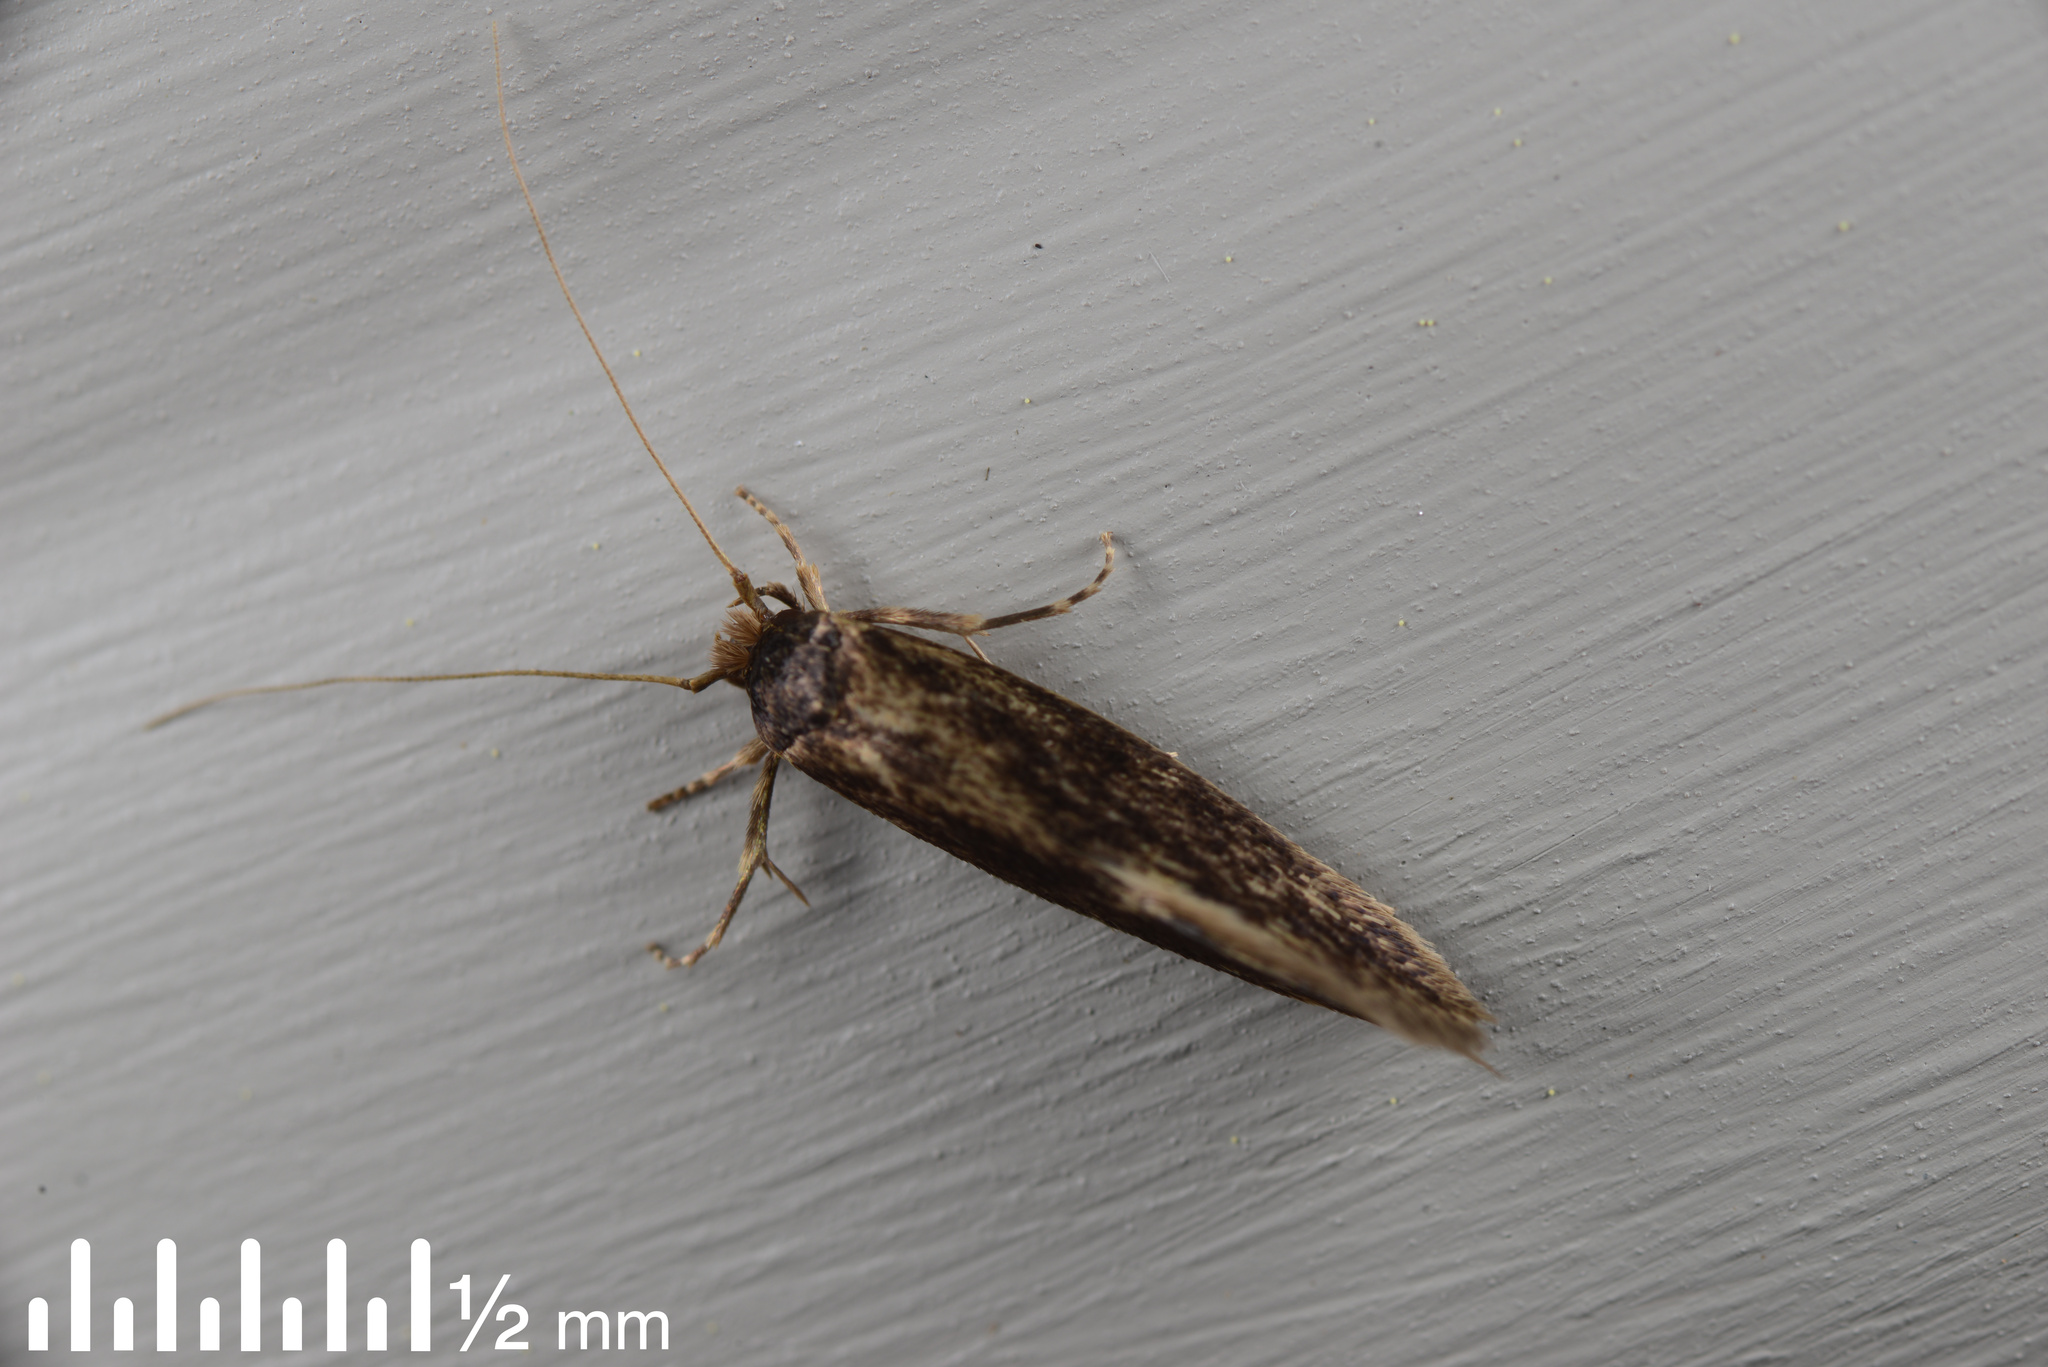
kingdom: Animalia
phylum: Arthropoda
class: Insecta
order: Lepidoptera
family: Tineidae
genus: Opogona
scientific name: Opogona omoscopa
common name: Moth
